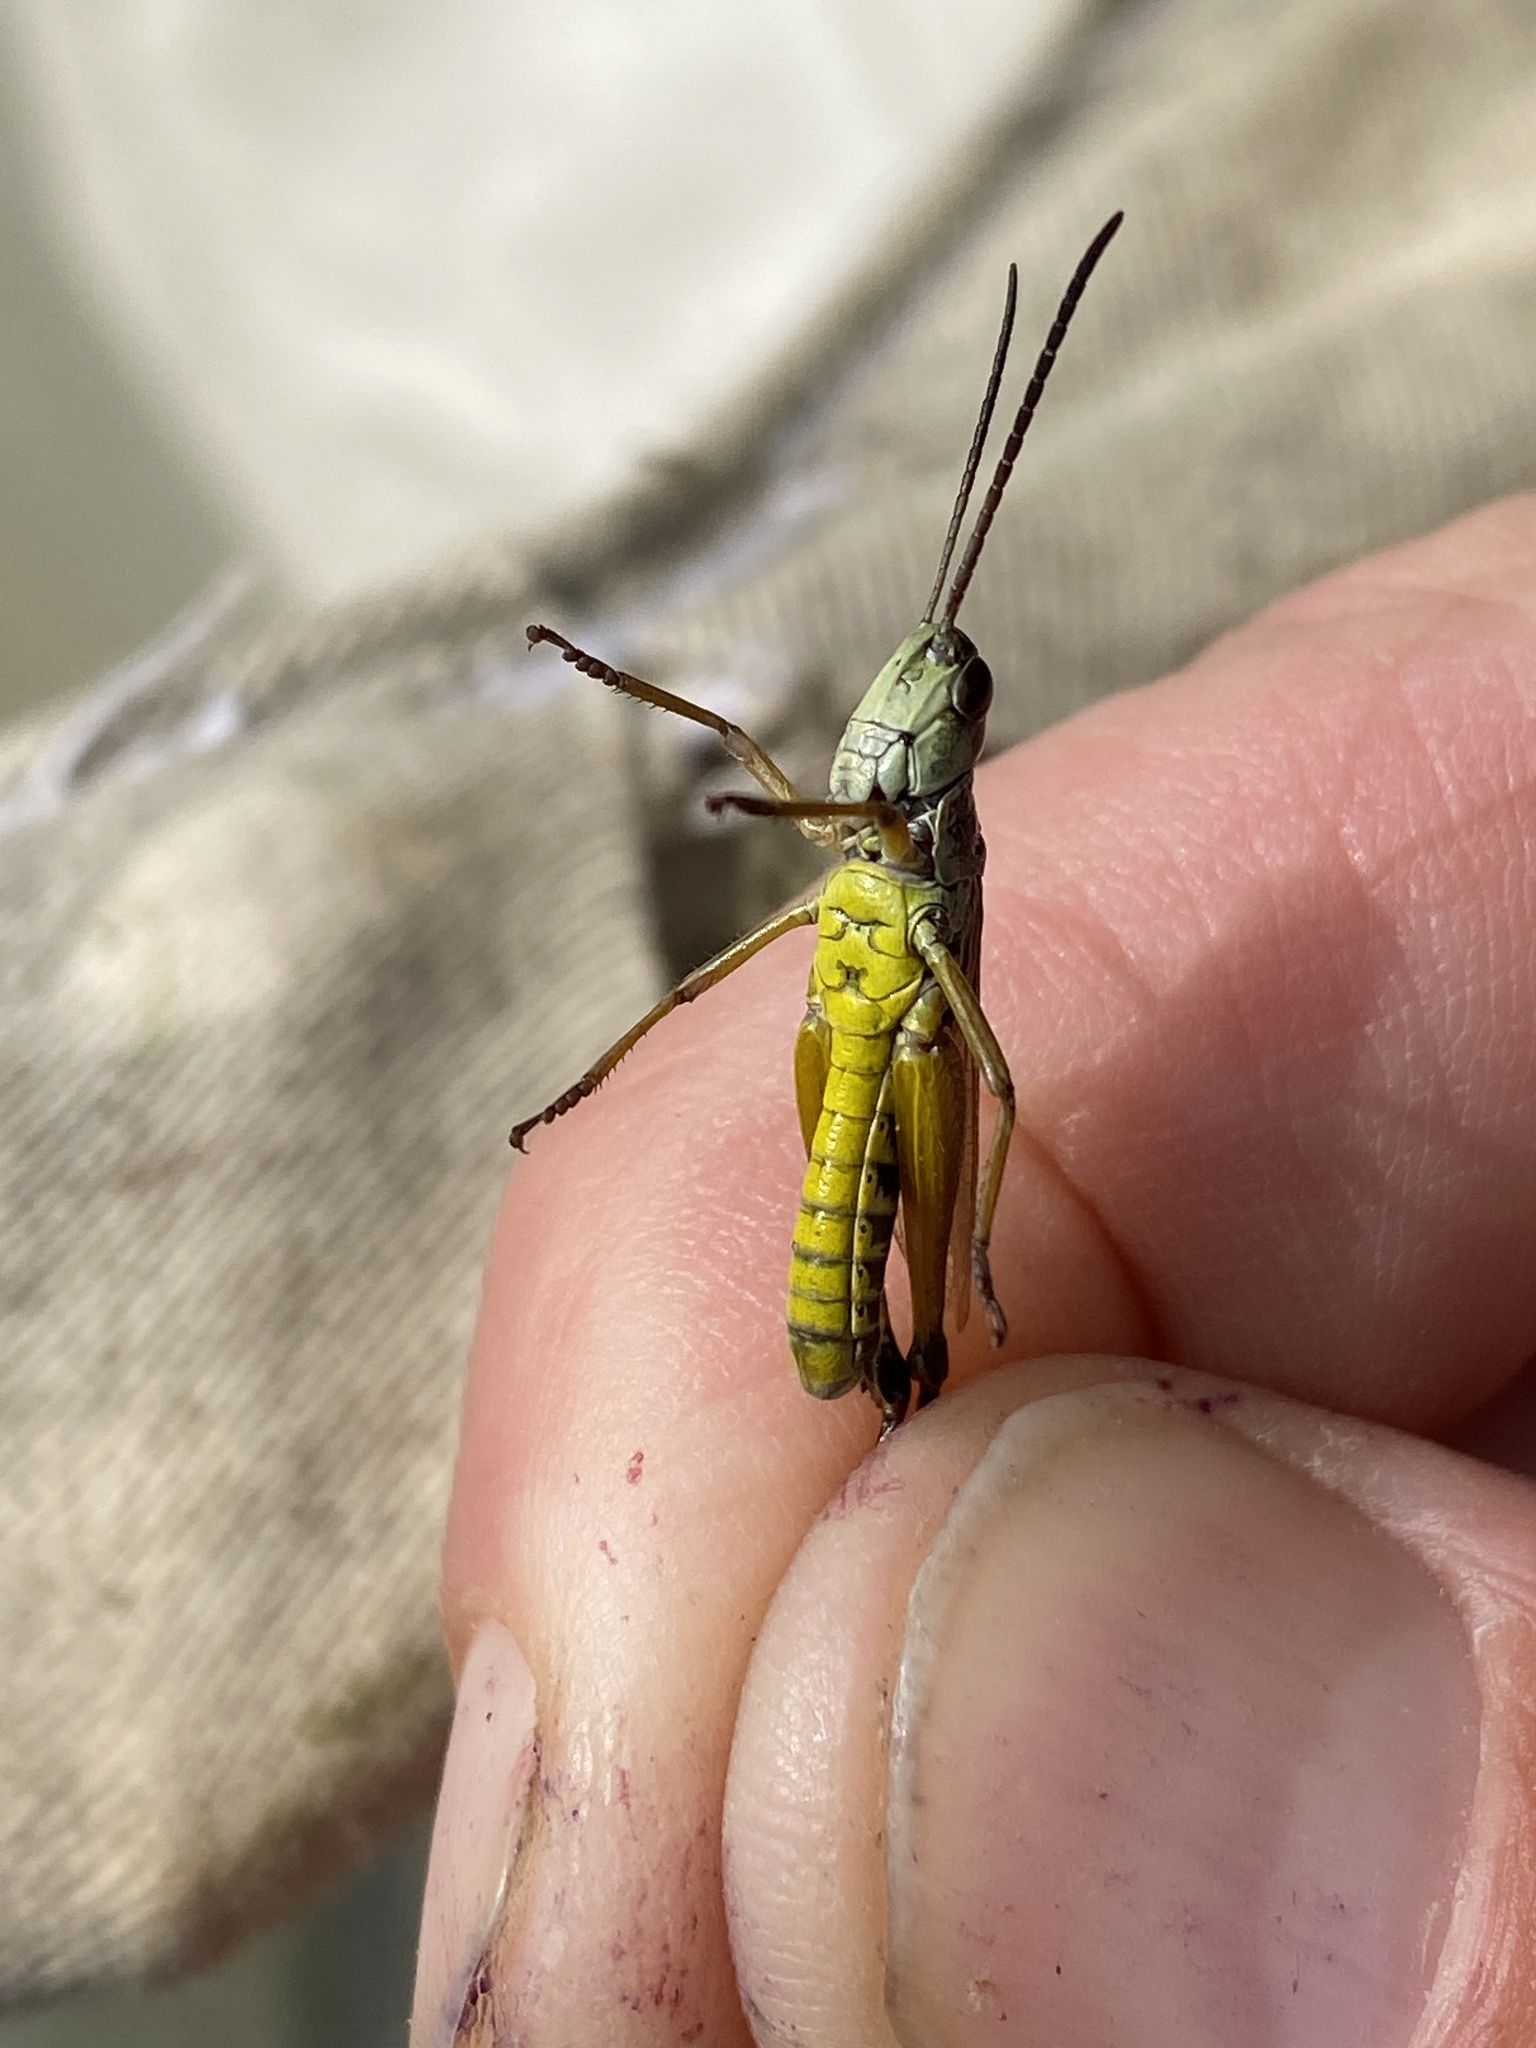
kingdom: Animalia
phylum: Arthropoda
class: Insecta
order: Orthoptera
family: Acrididae
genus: Pseudochorthippus
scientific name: Pseudochorthippus curtipennis
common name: Marsh meadow grasshopper
